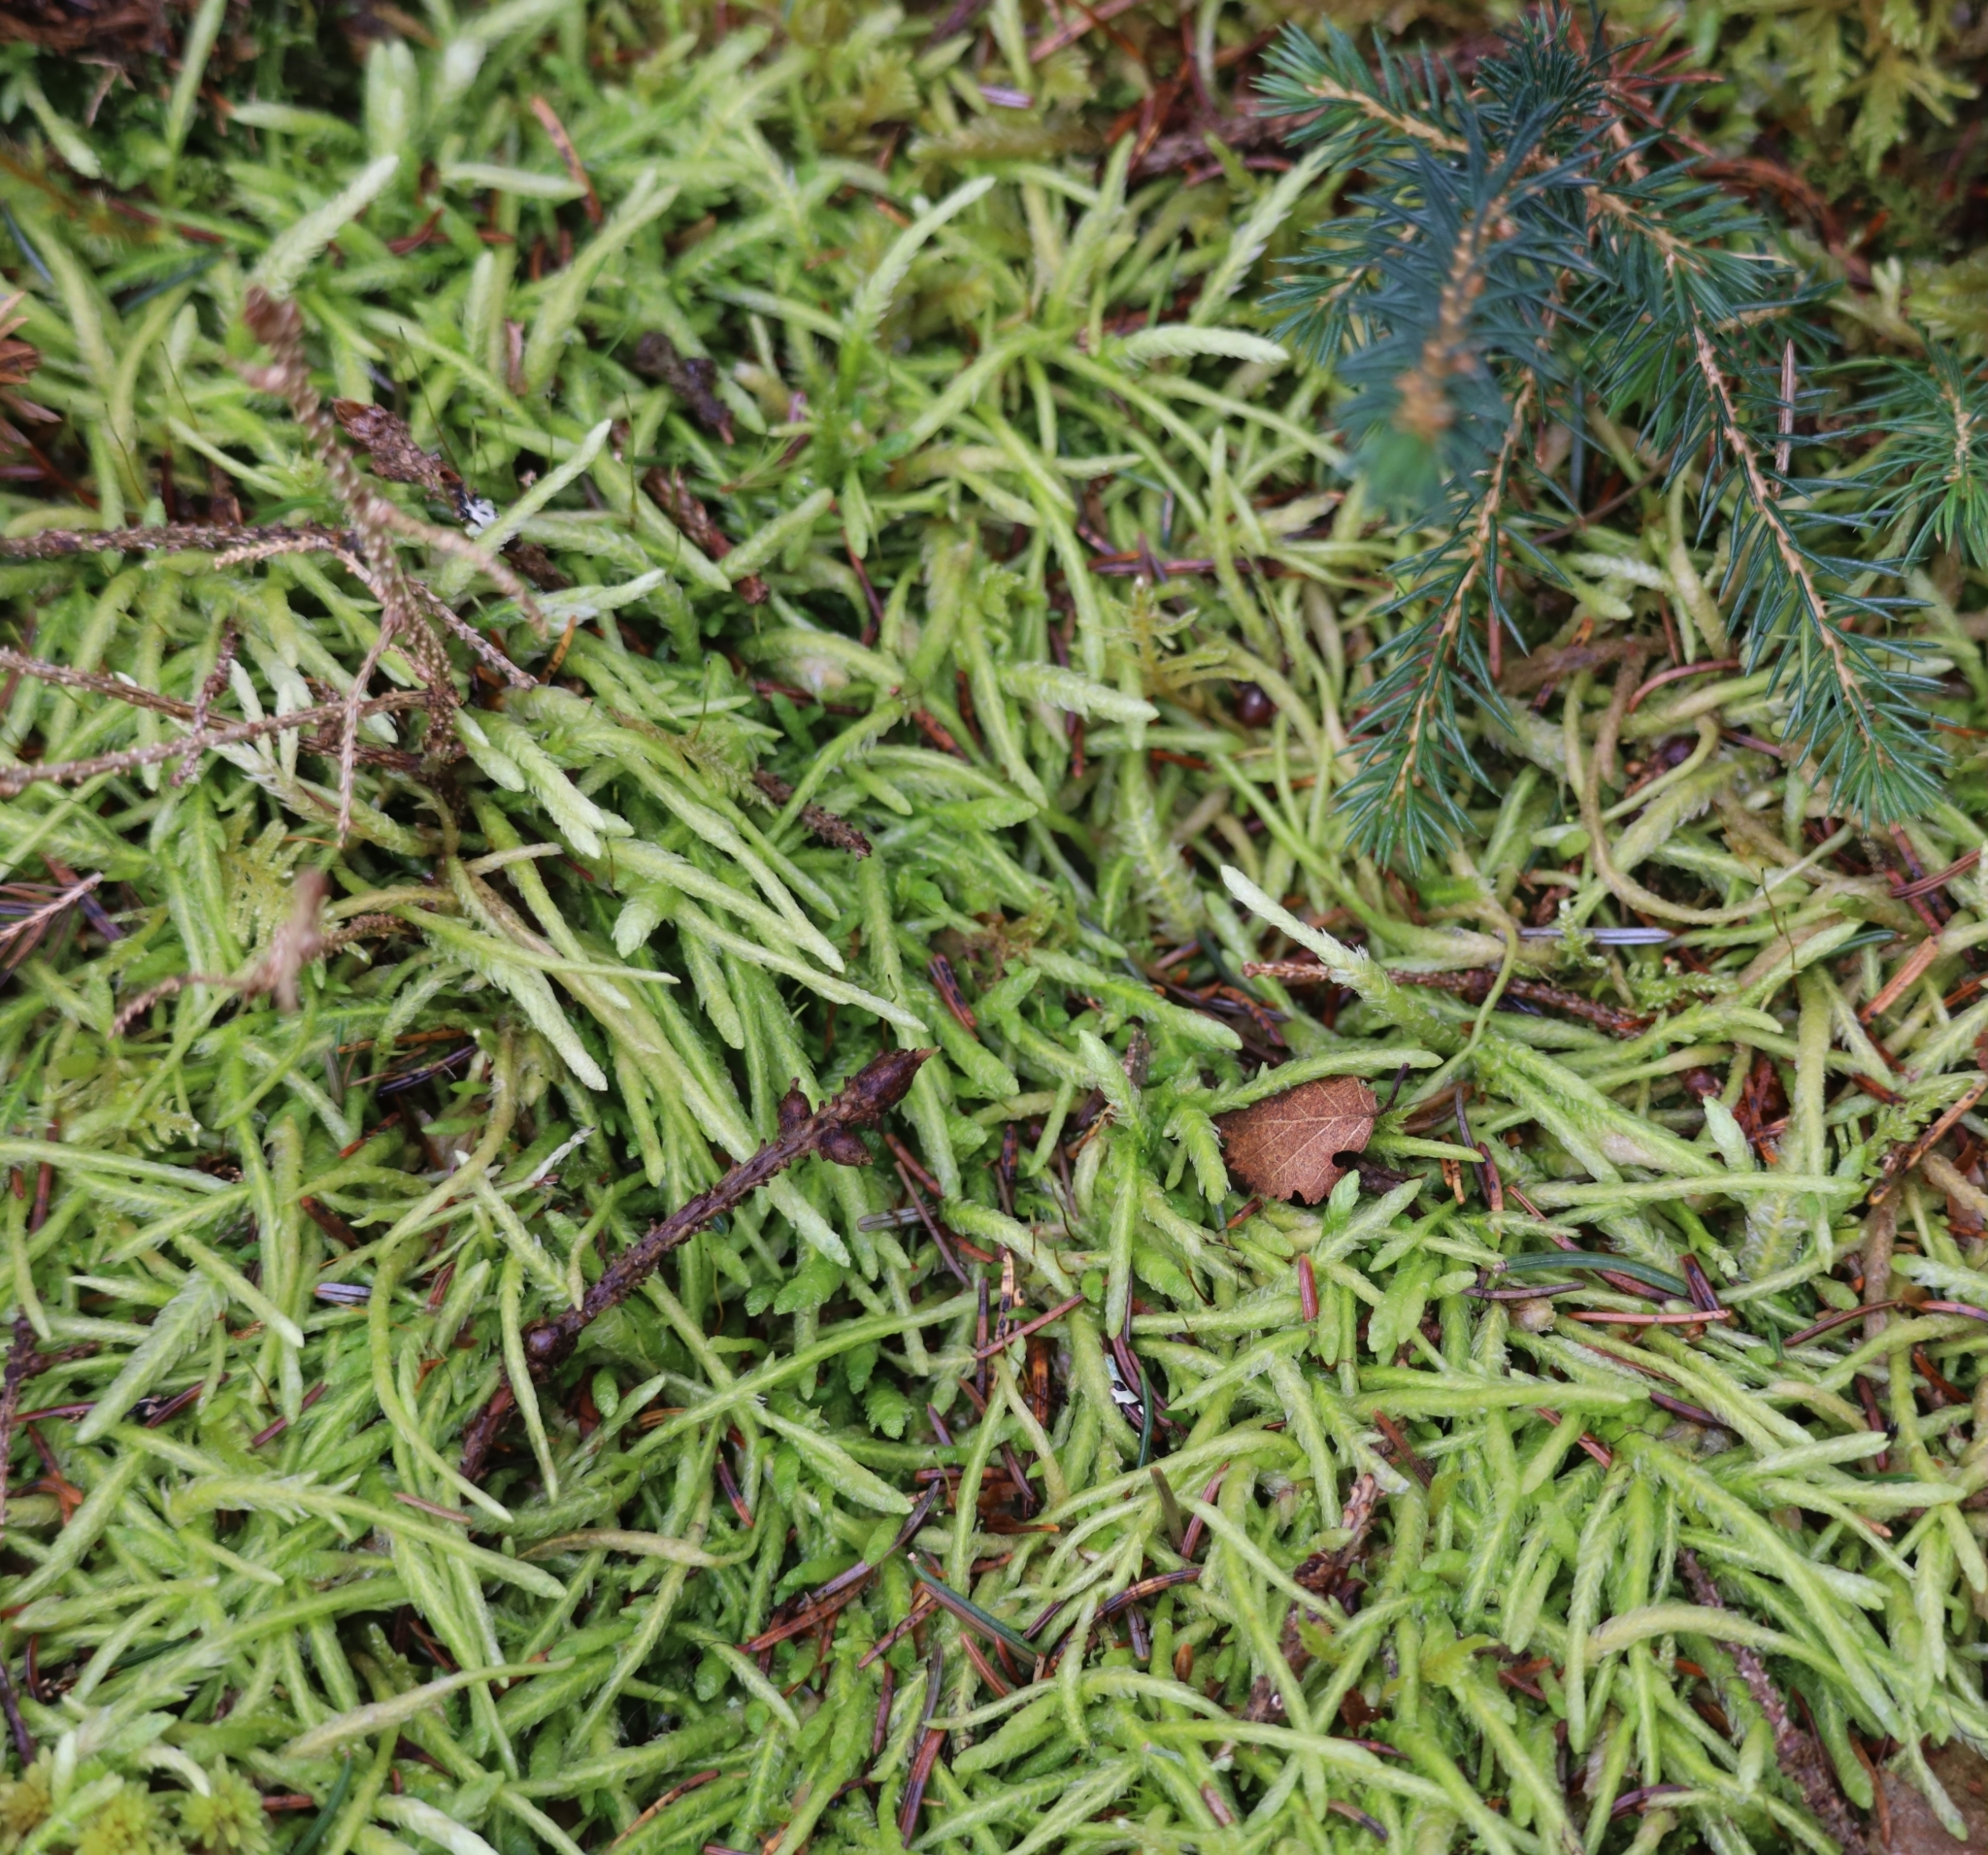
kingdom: Plantae
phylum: Bryophyta
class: Bryopsida
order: Hypnales
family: Plagiotheciaceae
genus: Plagiothecium
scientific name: Plagiothecium undulatum
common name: Waved silk-moss
